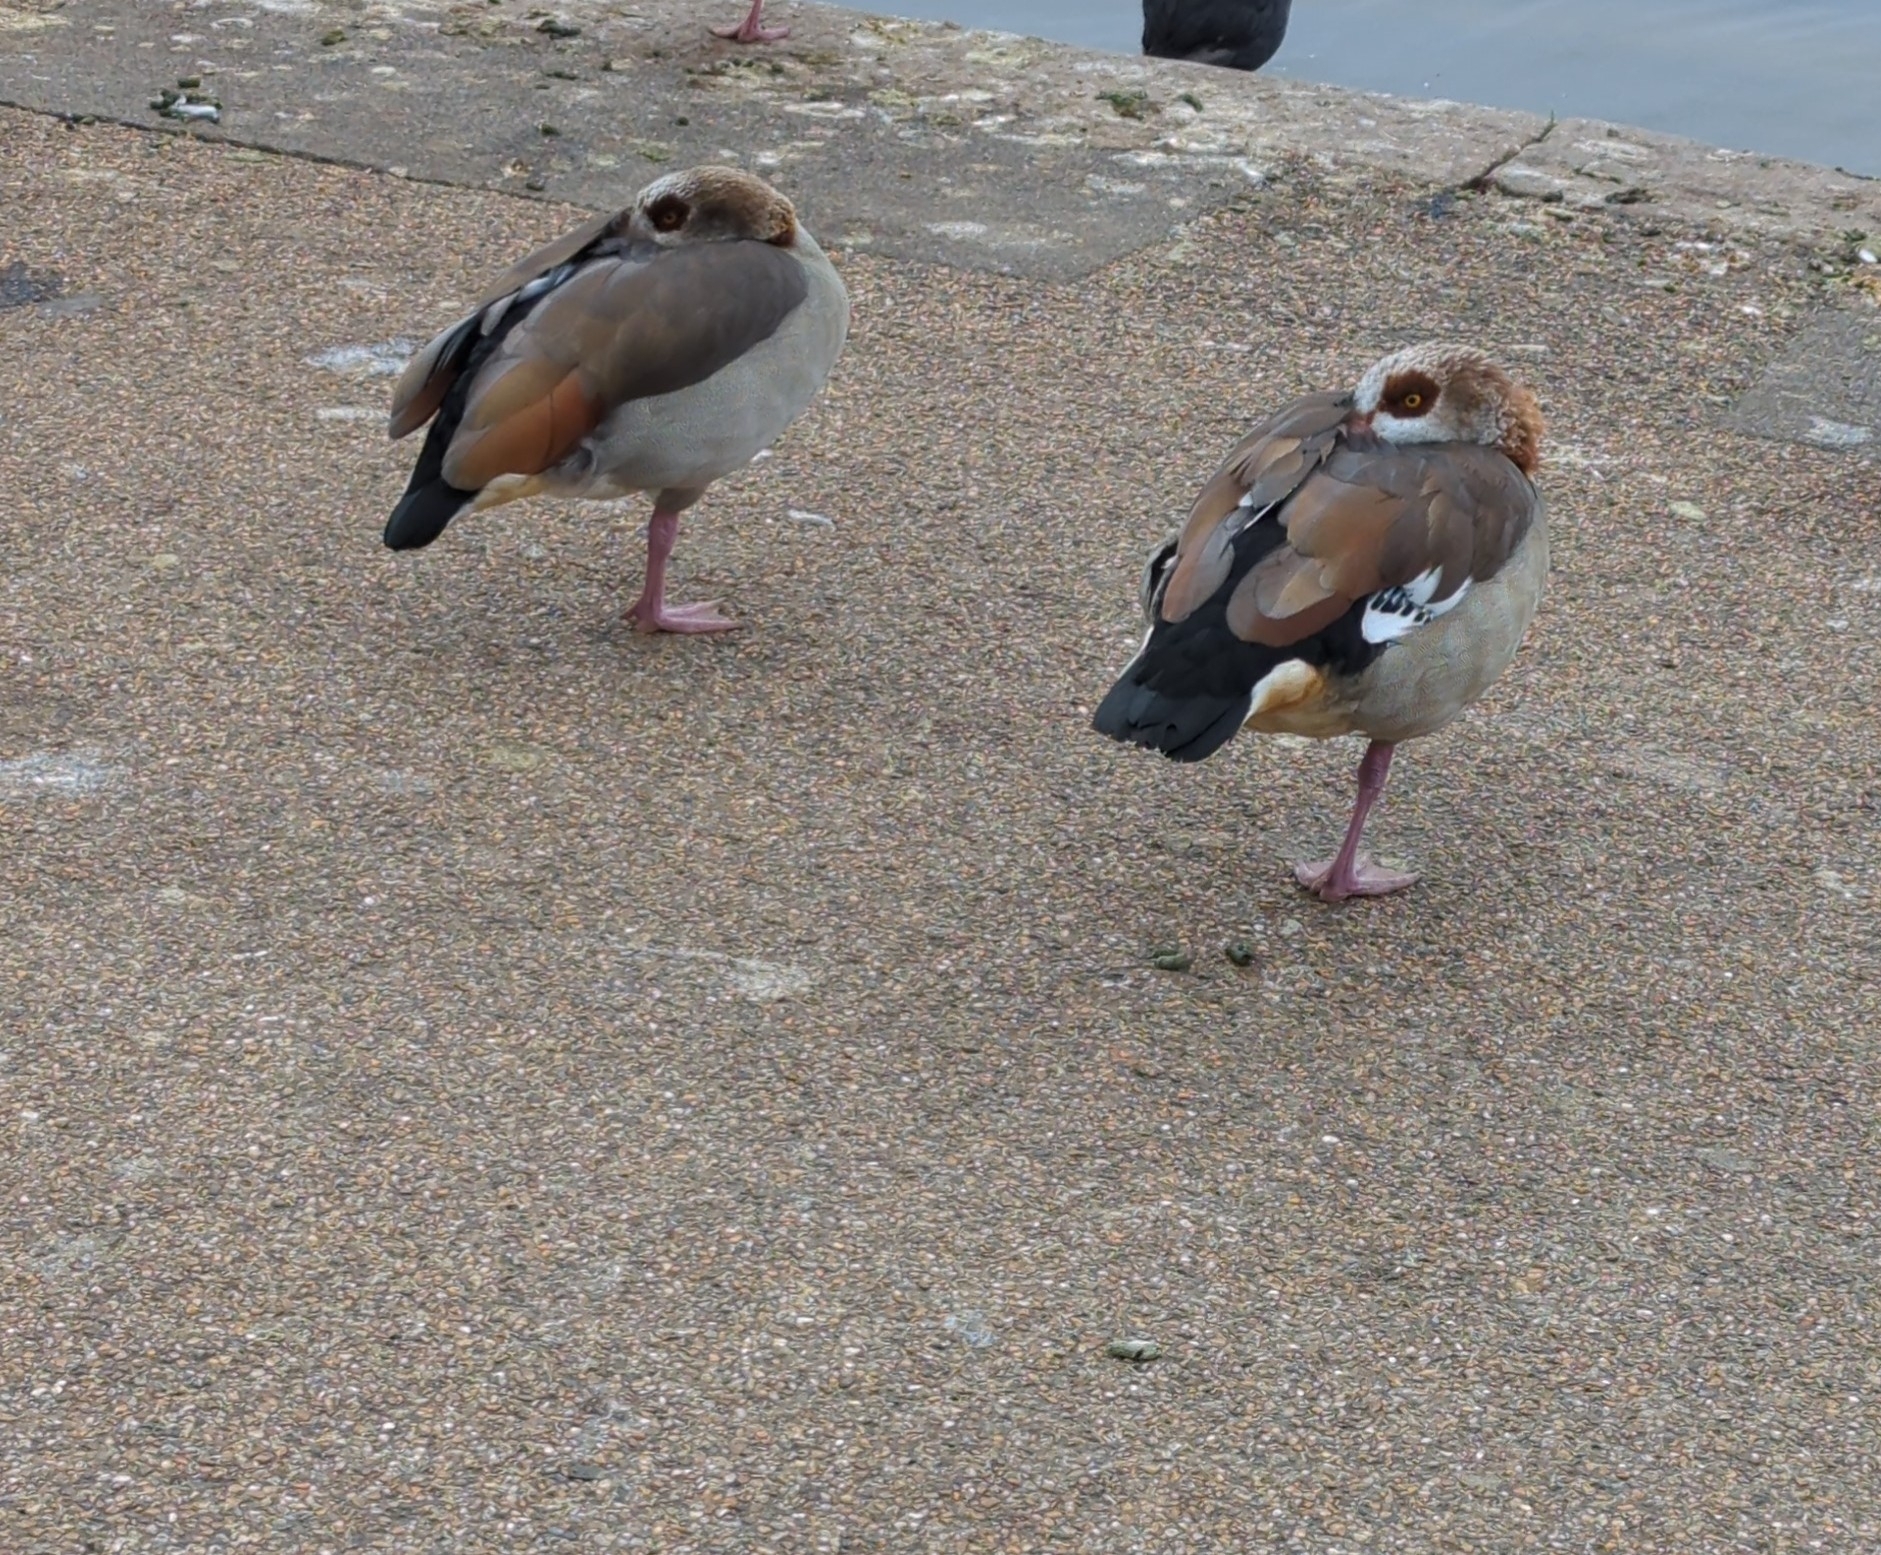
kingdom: Animalia
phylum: Chordata
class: Aves
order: Anseriformes
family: Anatidae
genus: Alopochen
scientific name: Alopochen aegyptiaca
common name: Egyptian goose
